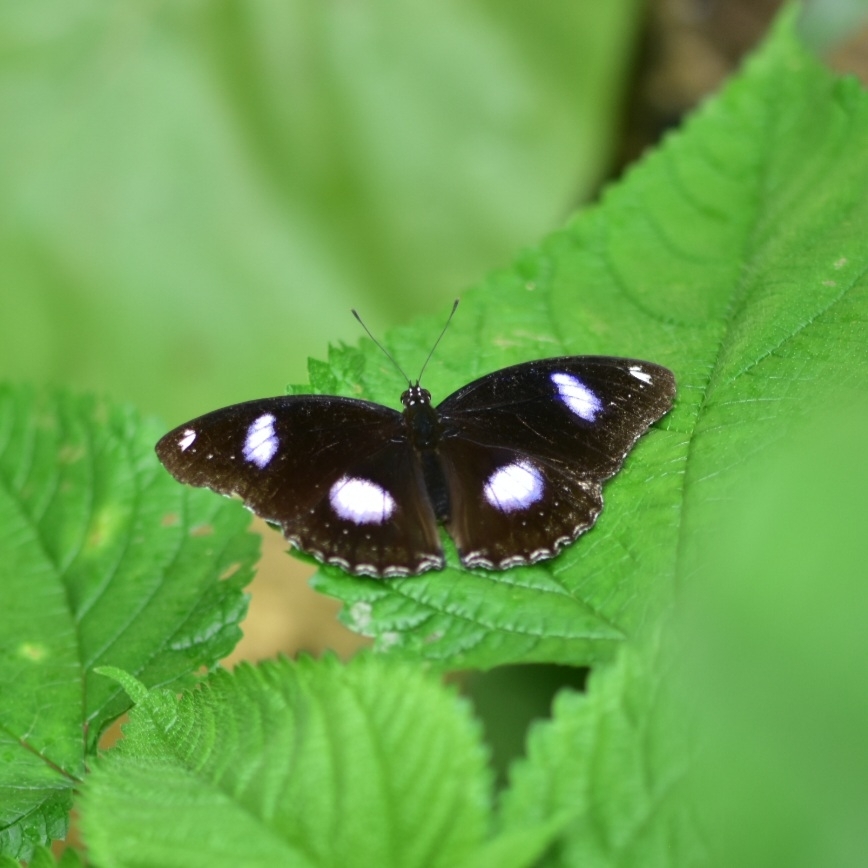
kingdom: Animalia
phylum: Arthropoda
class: Insecta
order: Lepidoptera
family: Nymphalidae
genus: Hypolimnas
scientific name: Hypolimnas bolina
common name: Great eggfly
